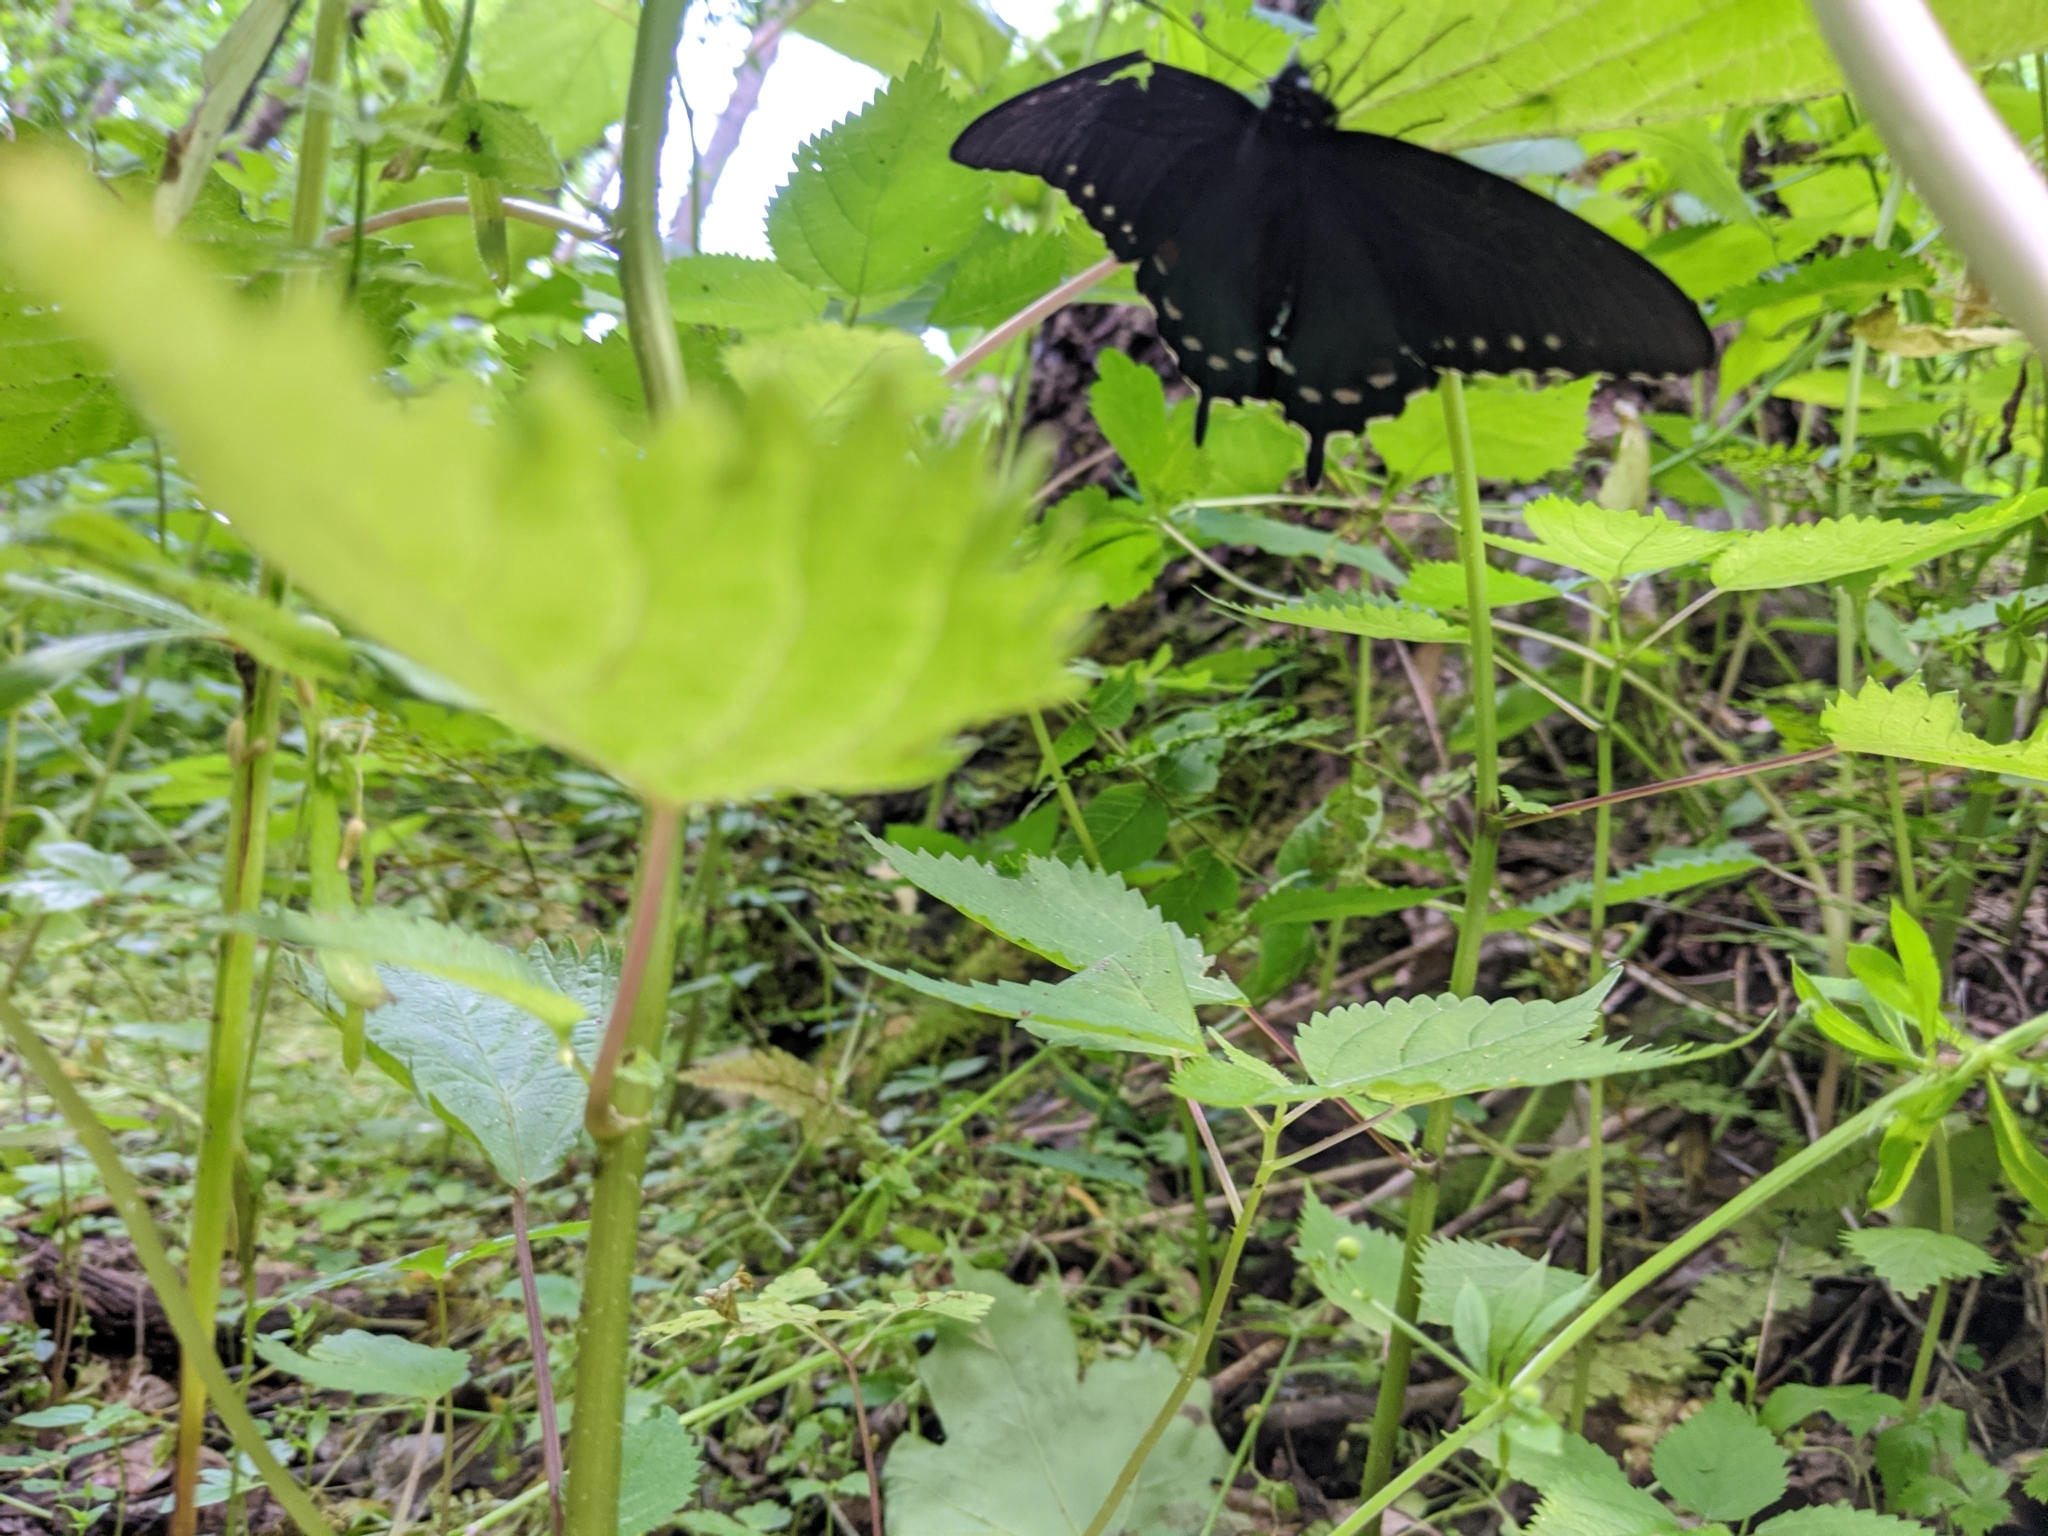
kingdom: Animalia
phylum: Arthropoda
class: Insecta
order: Lepidoptera
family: Papilionidae
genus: Battus
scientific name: Battus philenor
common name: Pipevine swallowtail
